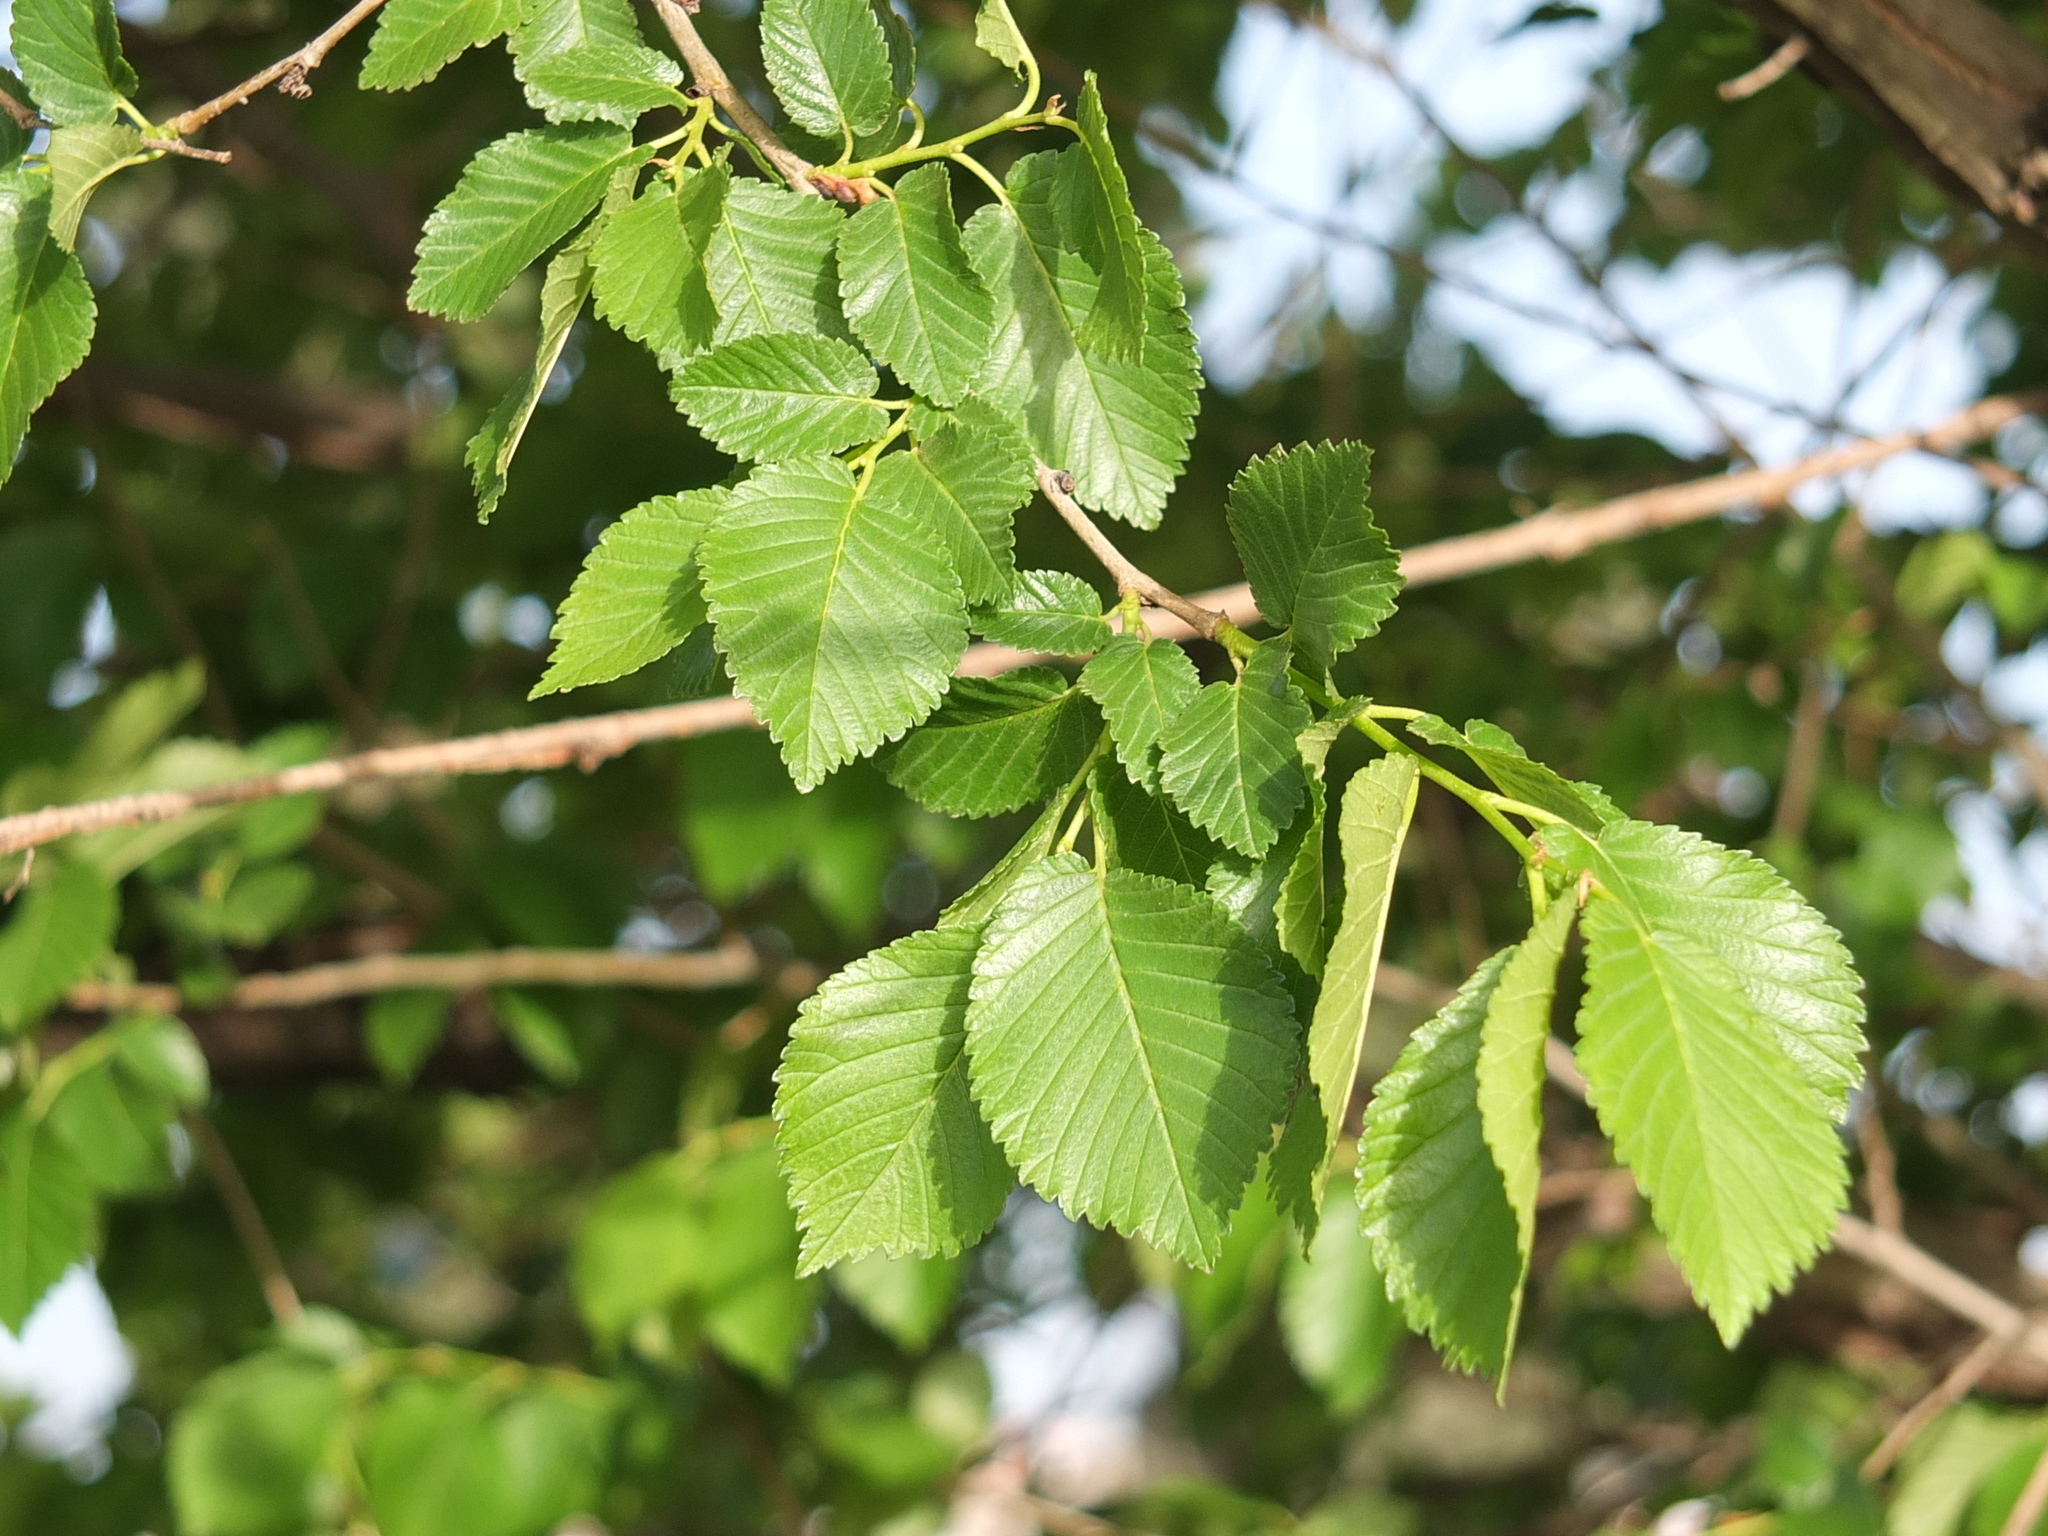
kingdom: Plantae
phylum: Tracheophyta
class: Magnoliopsida
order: Rosales
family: Ulmaceae
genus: Ulmus
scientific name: Ulmus minor
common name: Small-leaved elm
